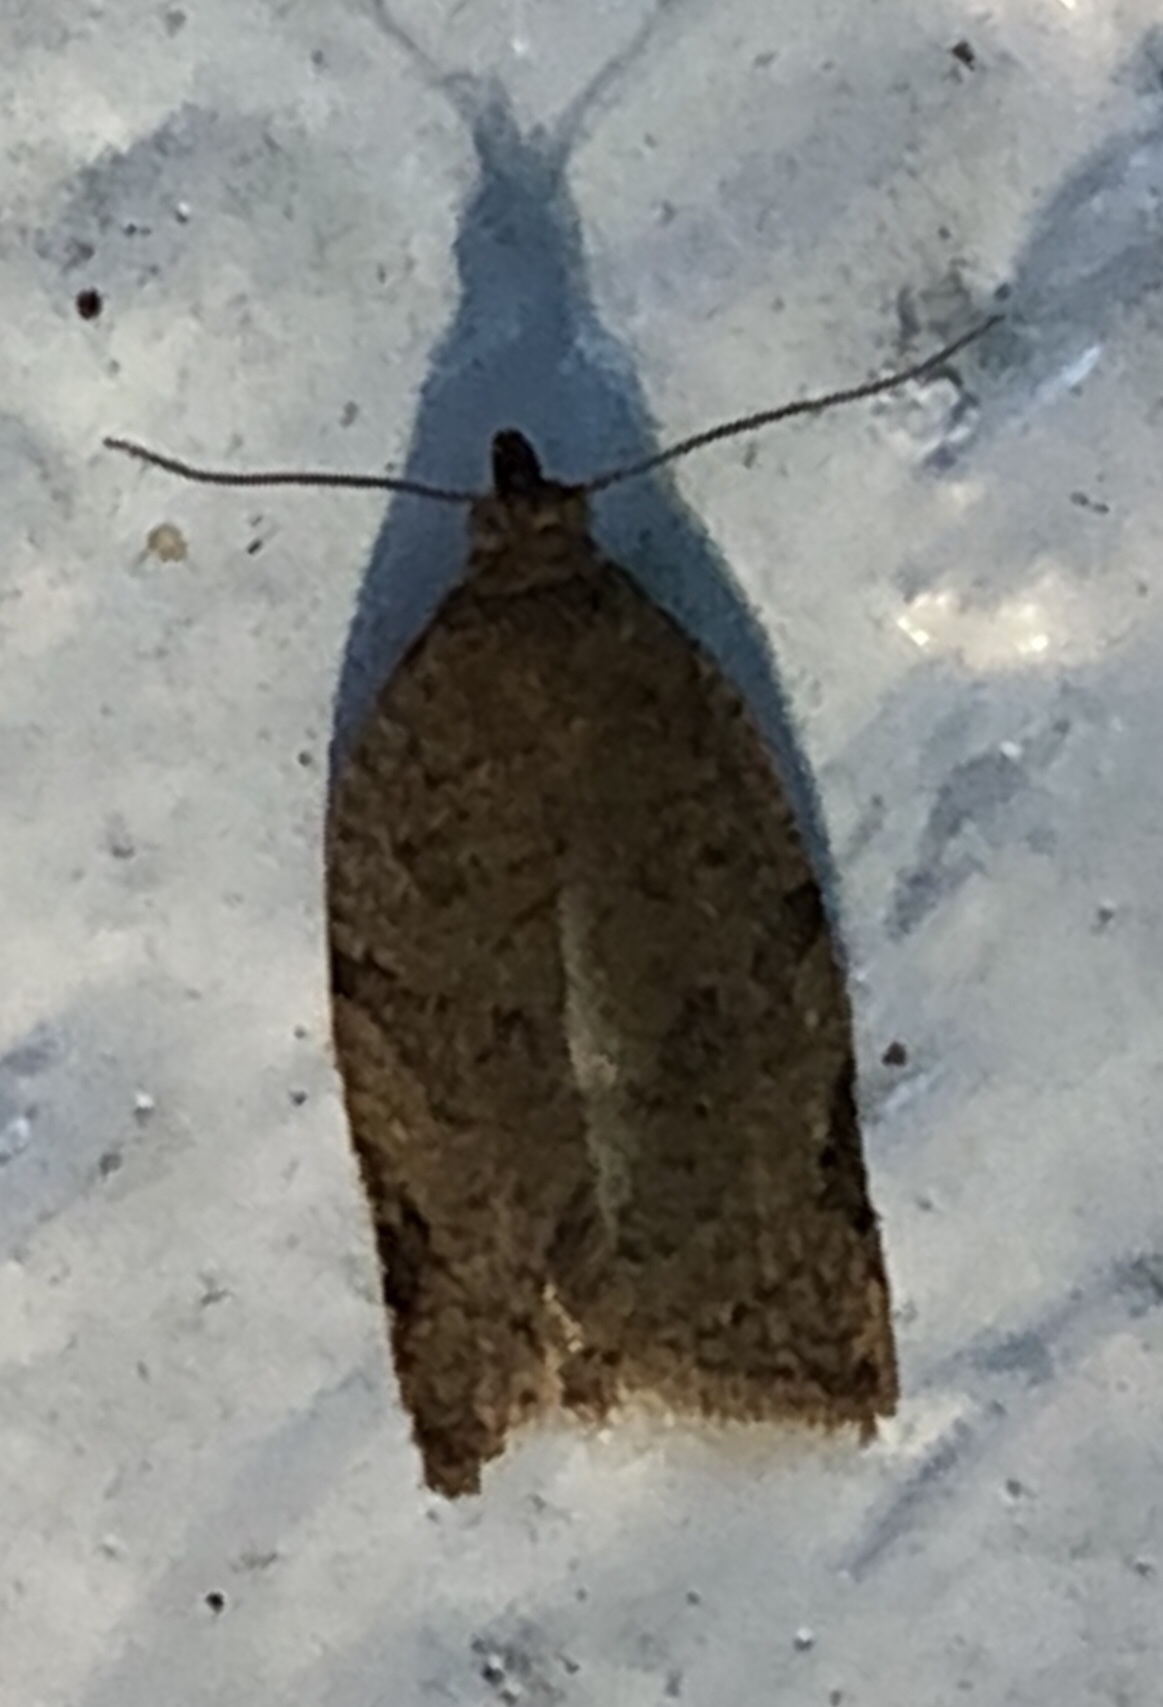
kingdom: Animalia
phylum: Arthropoda
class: Insecta
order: Lepidoptera
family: Tortricidae
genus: Clepsis
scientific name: Clepsis virescana
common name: Greenish apple moth
